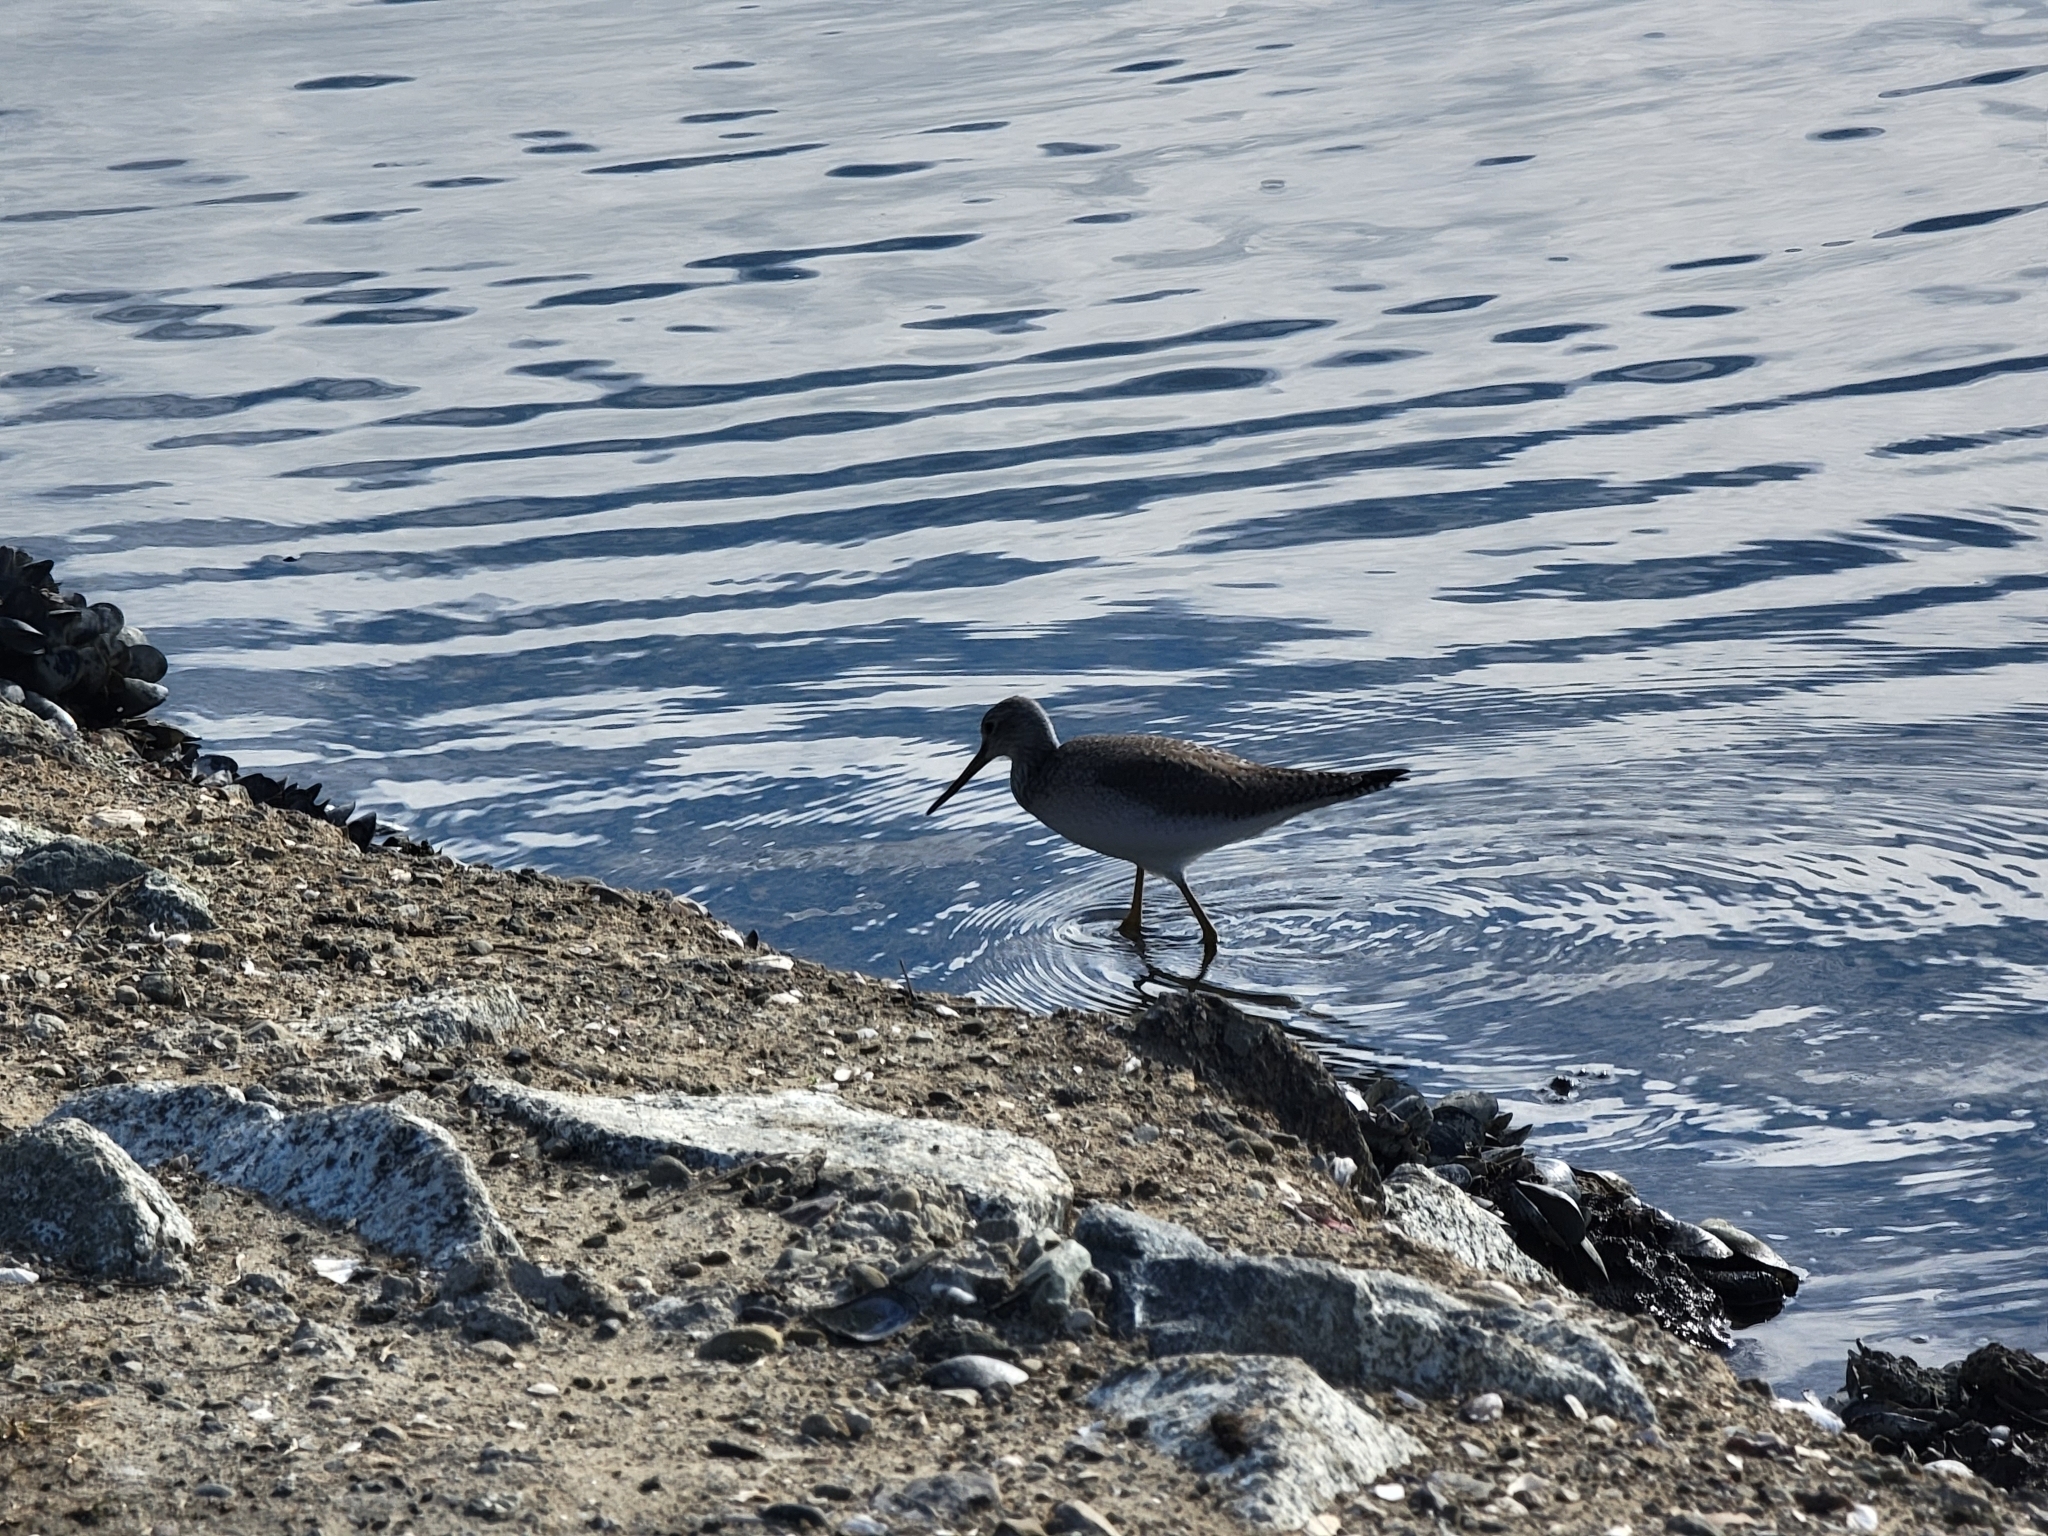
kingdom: Animalia
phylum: Chordata
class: Aves
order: Charadriiformes
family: Scolopacidae
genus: Tringa
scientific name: Tringa melanoleuca
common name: Greater yellowlegs
